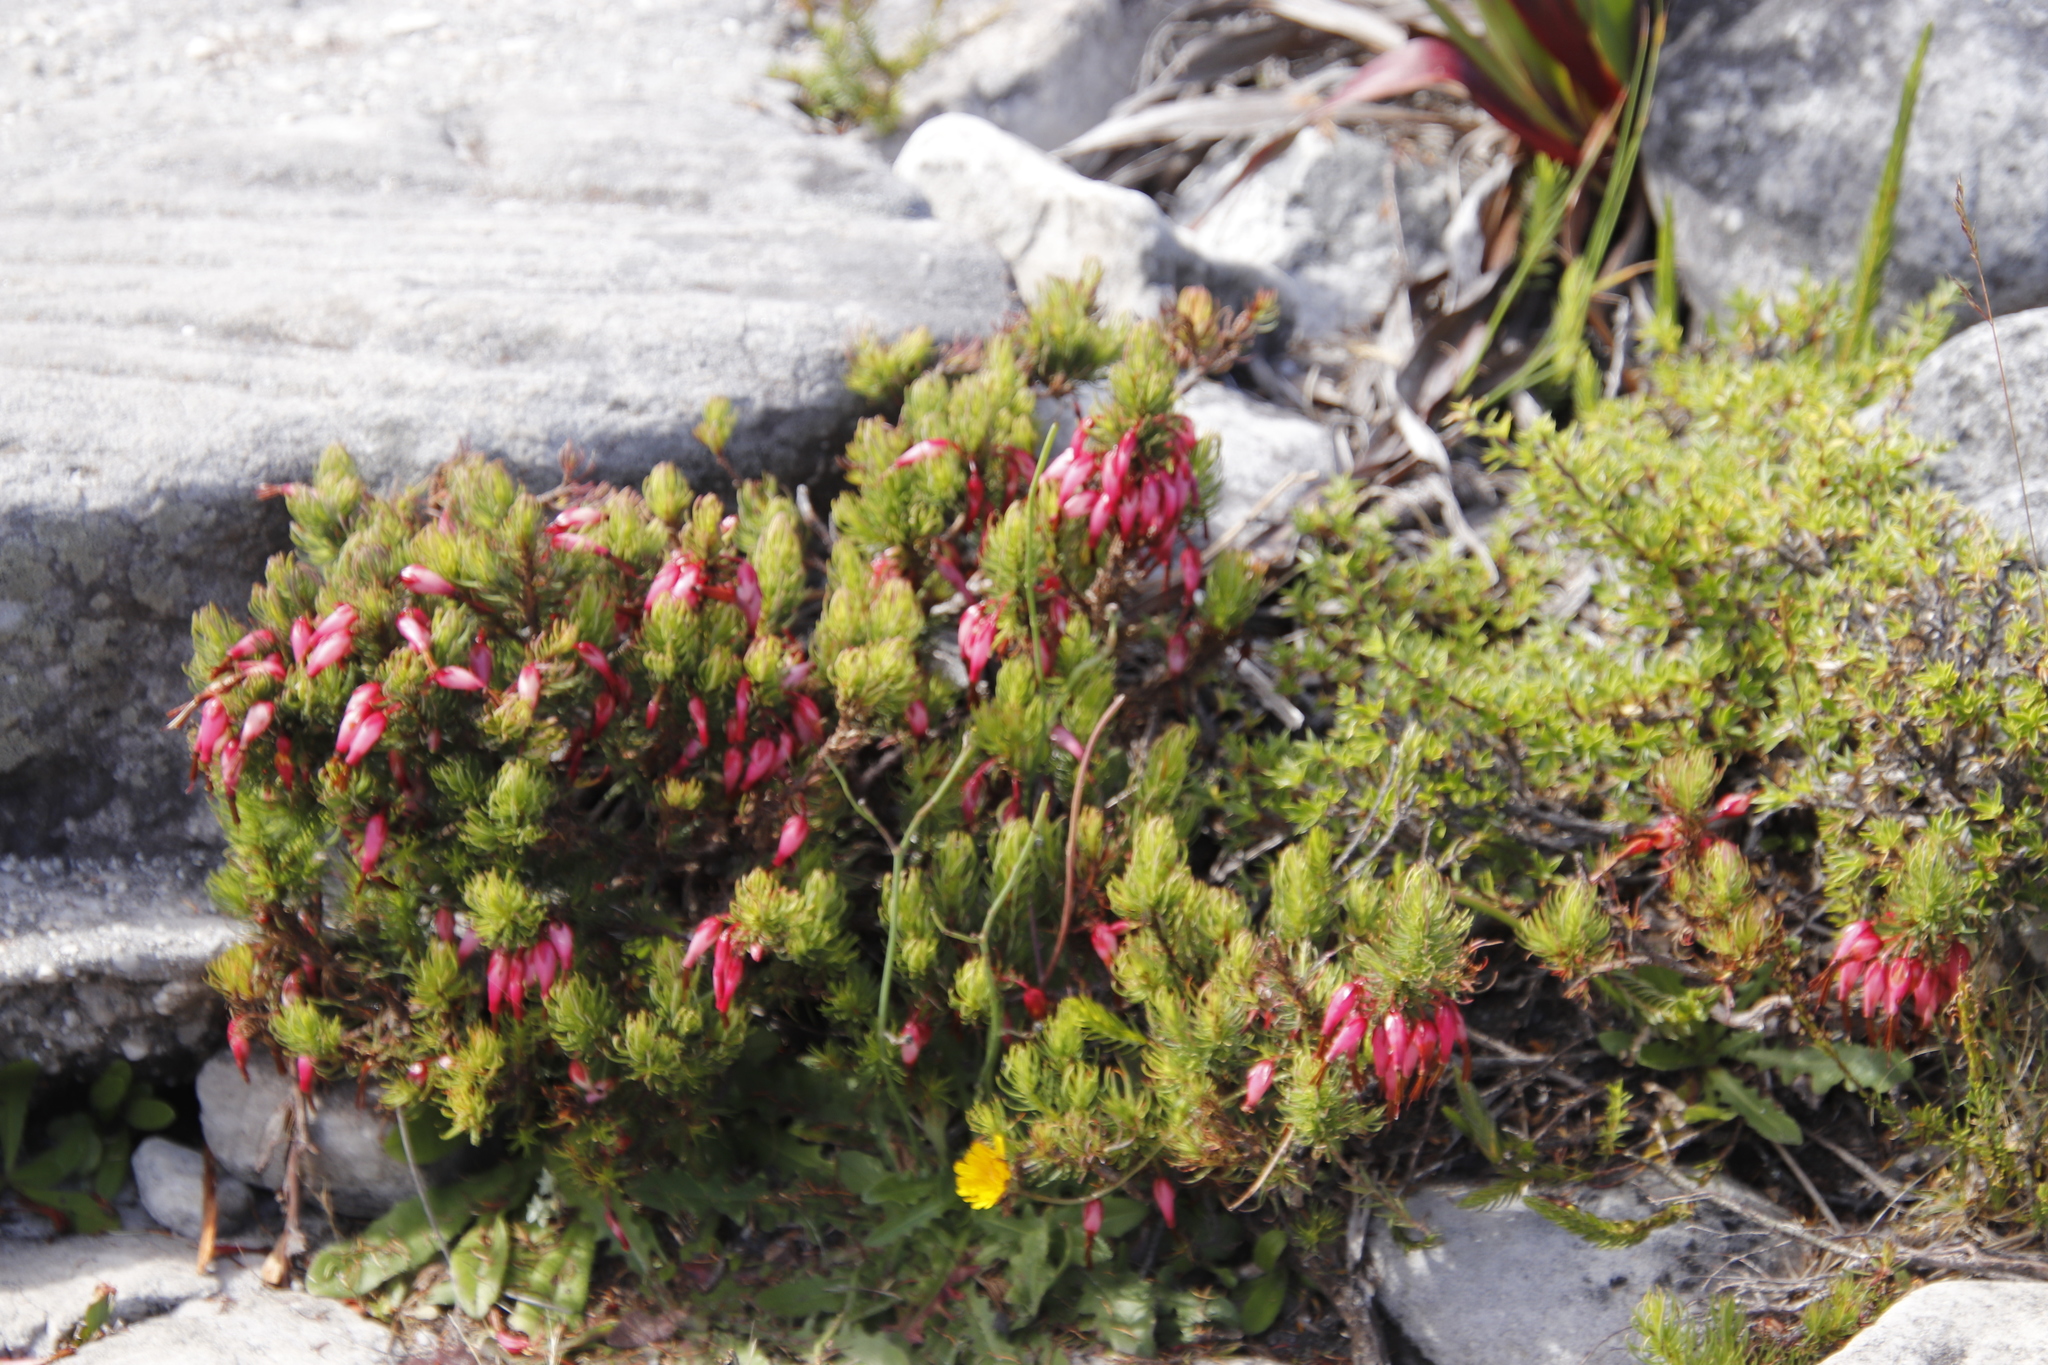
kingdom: Plantae
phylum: Tracheophyta
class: Magnoliopsida
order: Ericales
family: Ericaceae
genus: Erica
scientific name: Erica plukenetii
